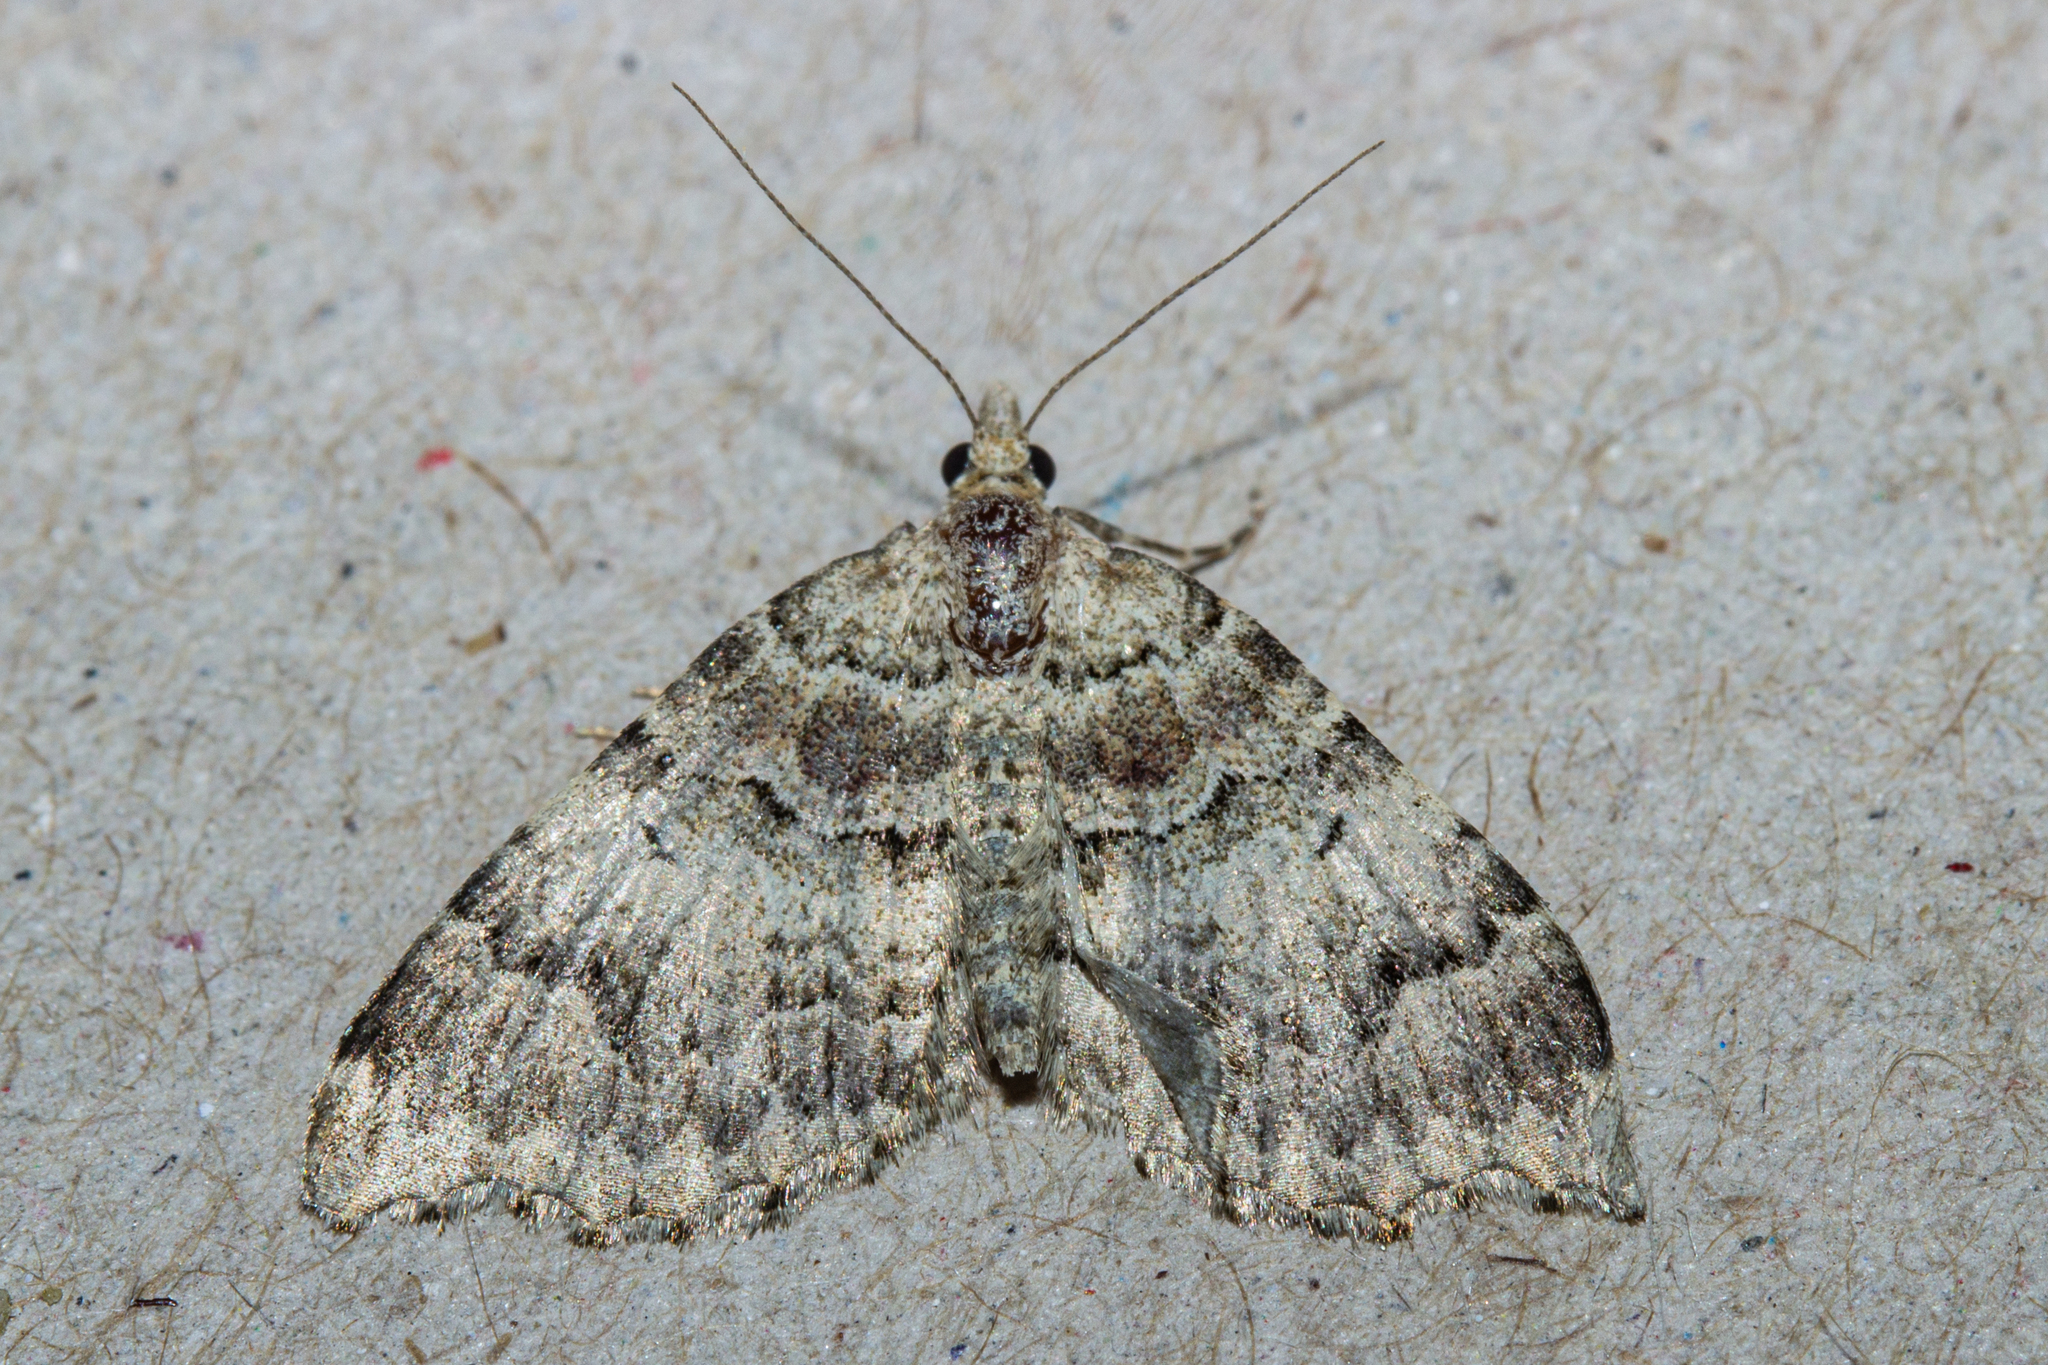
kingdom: Animalia
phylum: Arthropoda
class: Insecta
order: Lepidoptera
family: Geometridae
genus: Helastia
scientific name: Helastia cryptica
